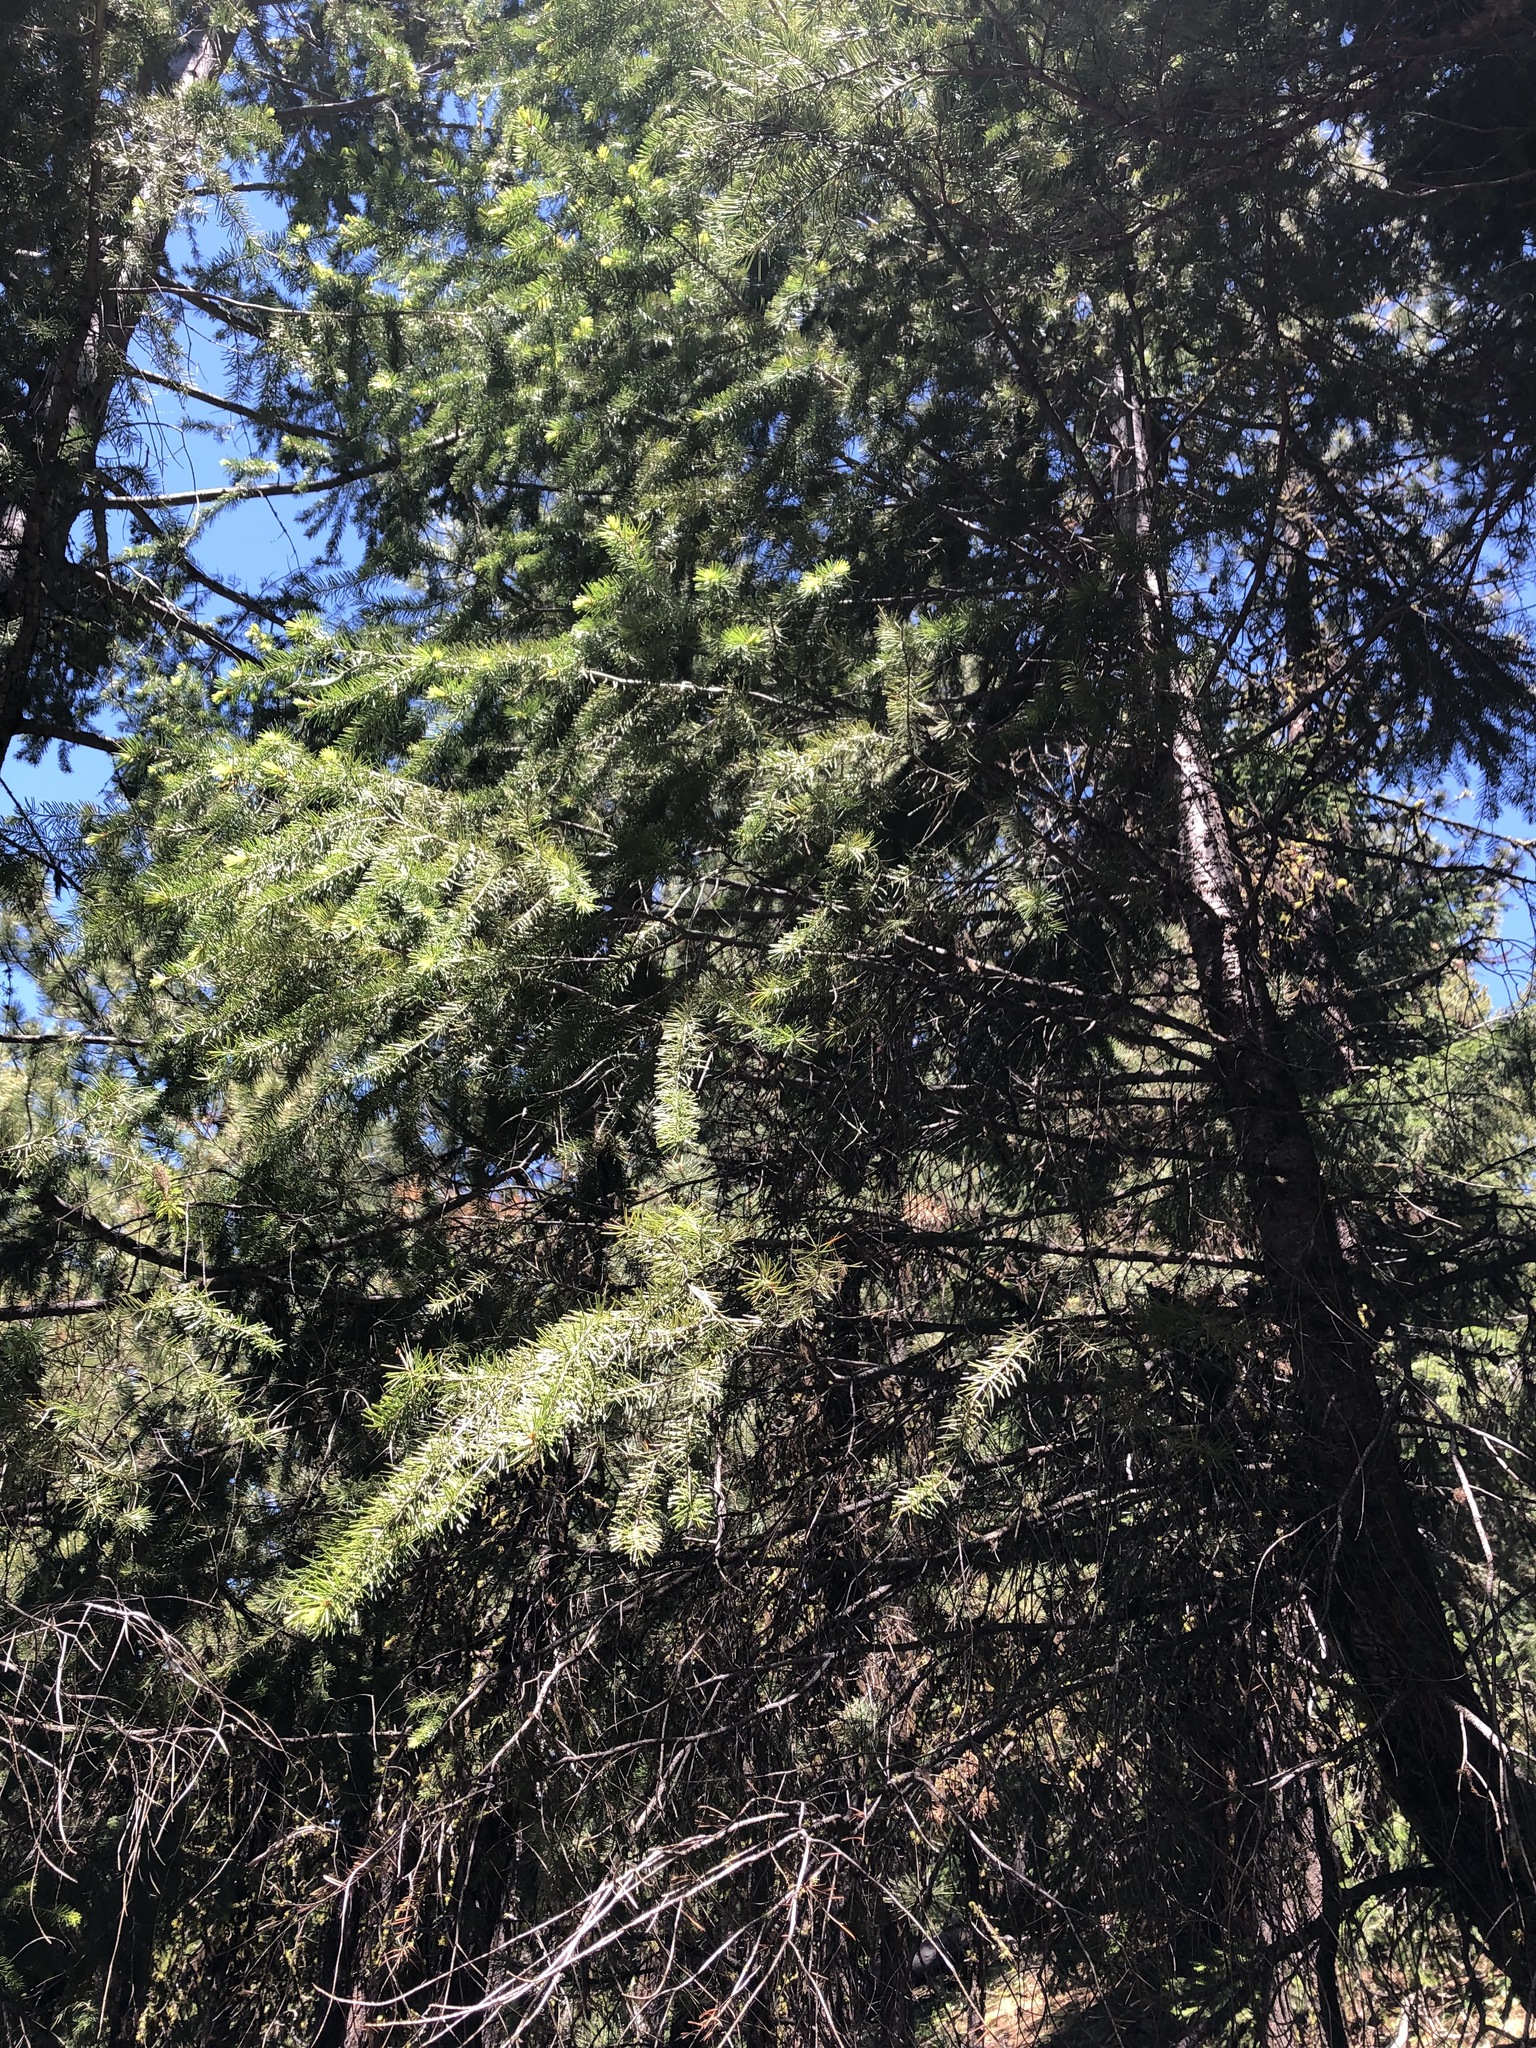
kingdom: Plantae
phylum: Tracheophyta
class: Pinopsida
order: Pinales
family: Pinaceae
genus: Pseudotsuga
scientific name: Pseudotsuga menziesii
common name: Douglas fir
